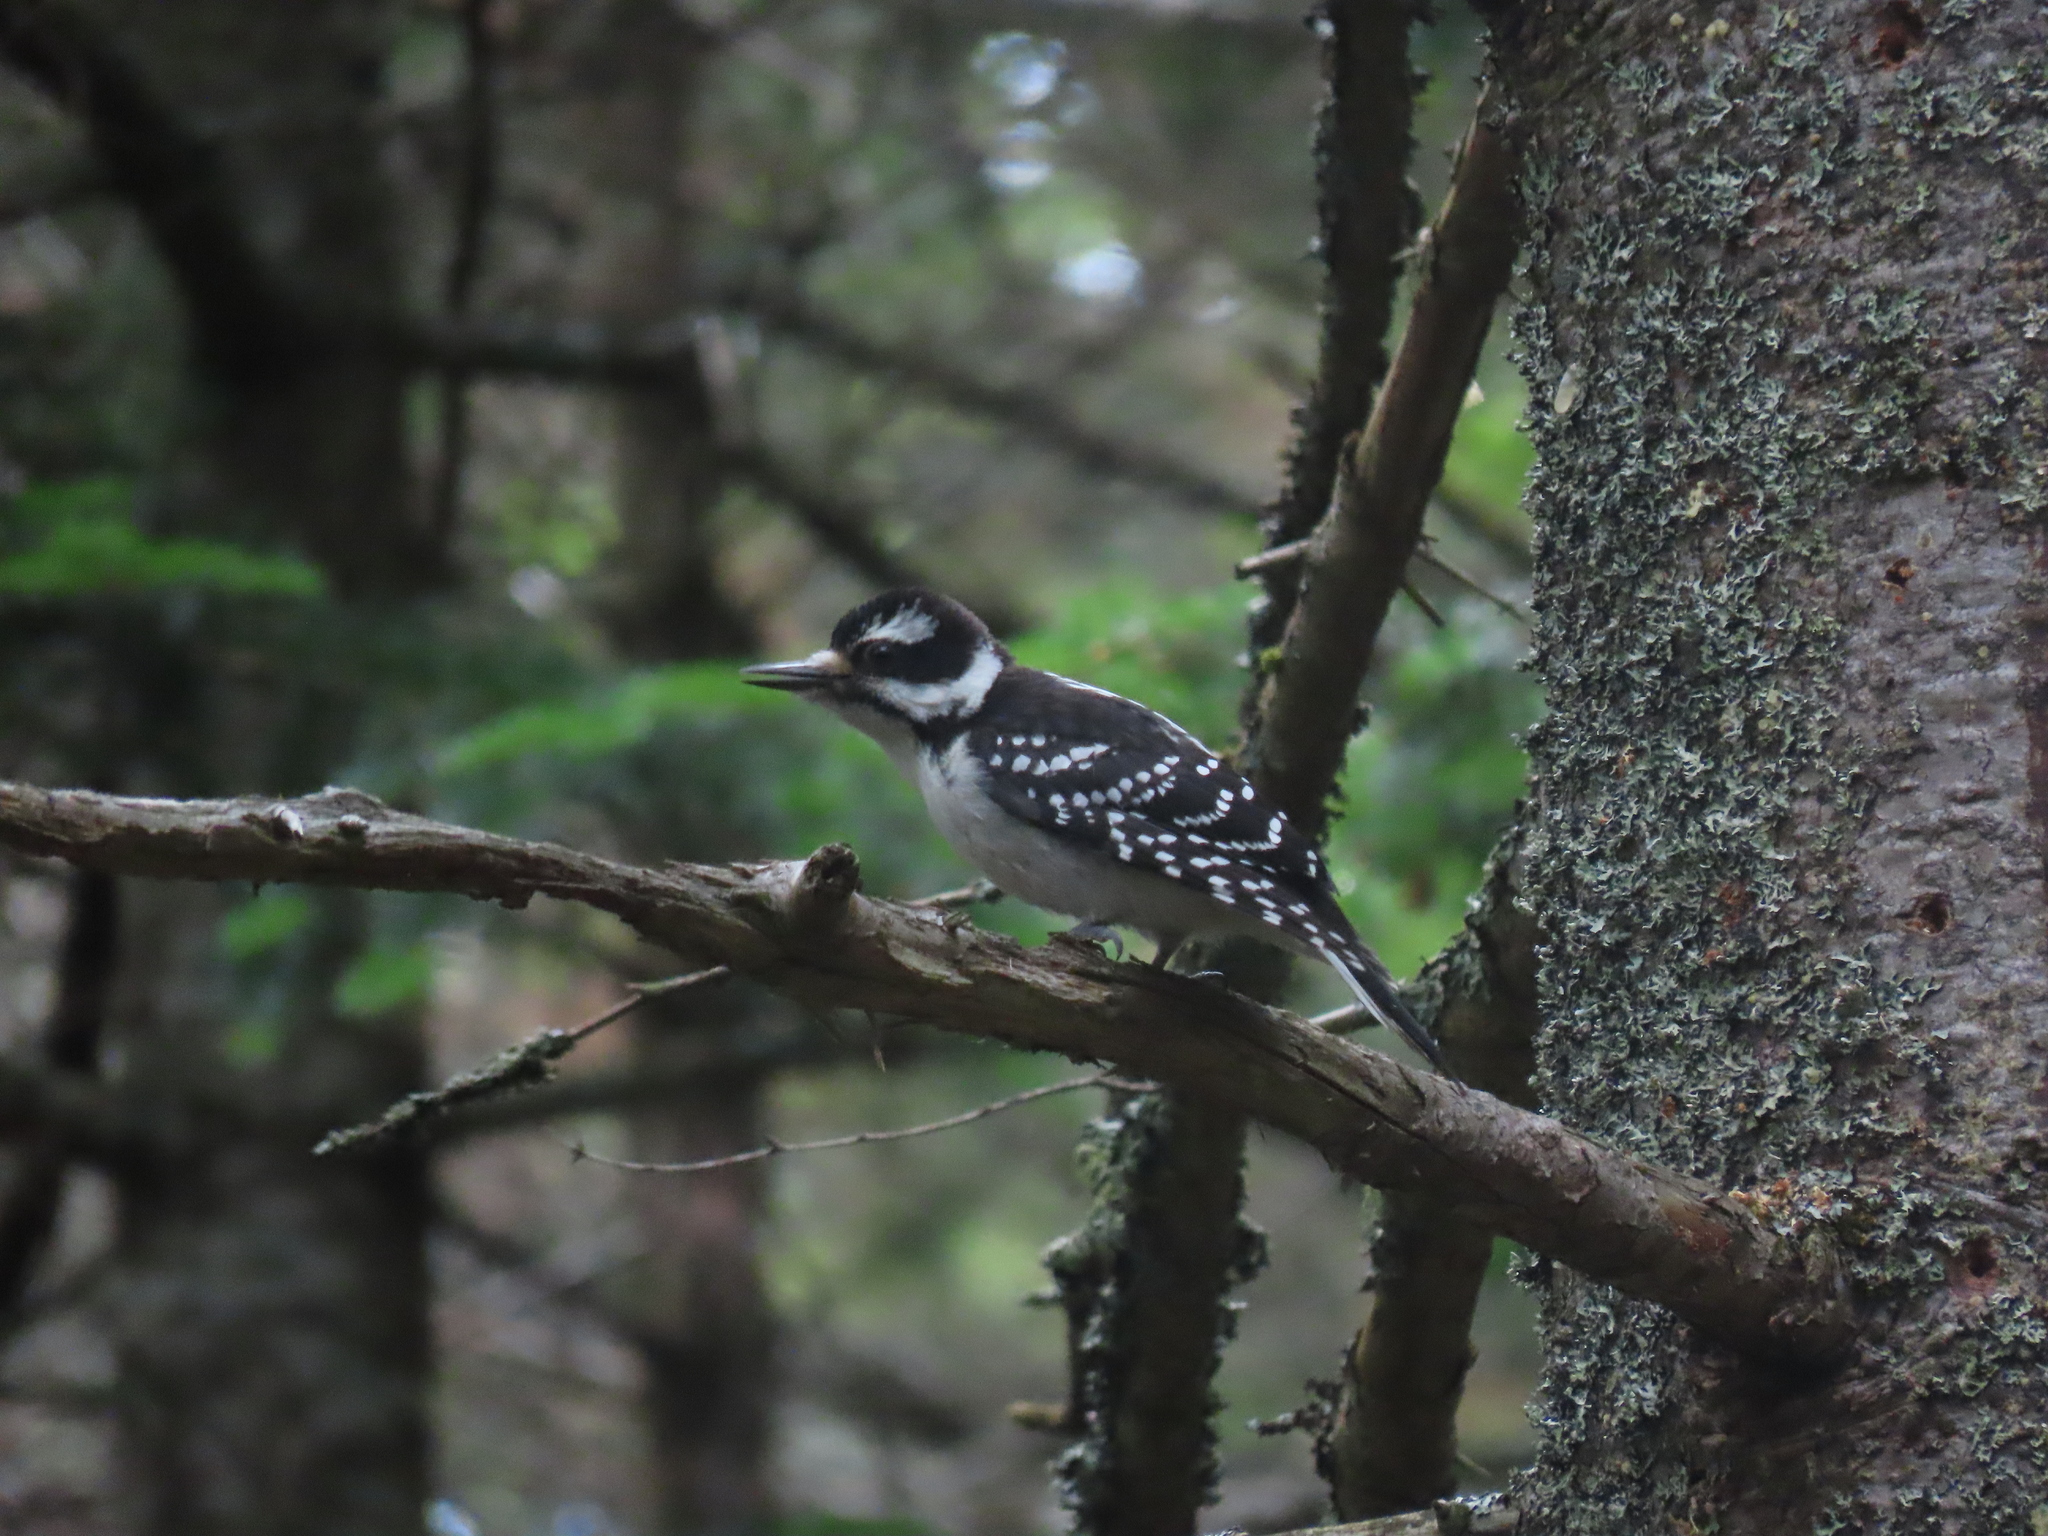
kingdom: Animalia
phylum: Chordata
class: Aves
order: Piciformes
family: Picidae
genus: Leuconotopicus
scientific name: Leuconotopicus villosus
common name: Hairy woodpecker
